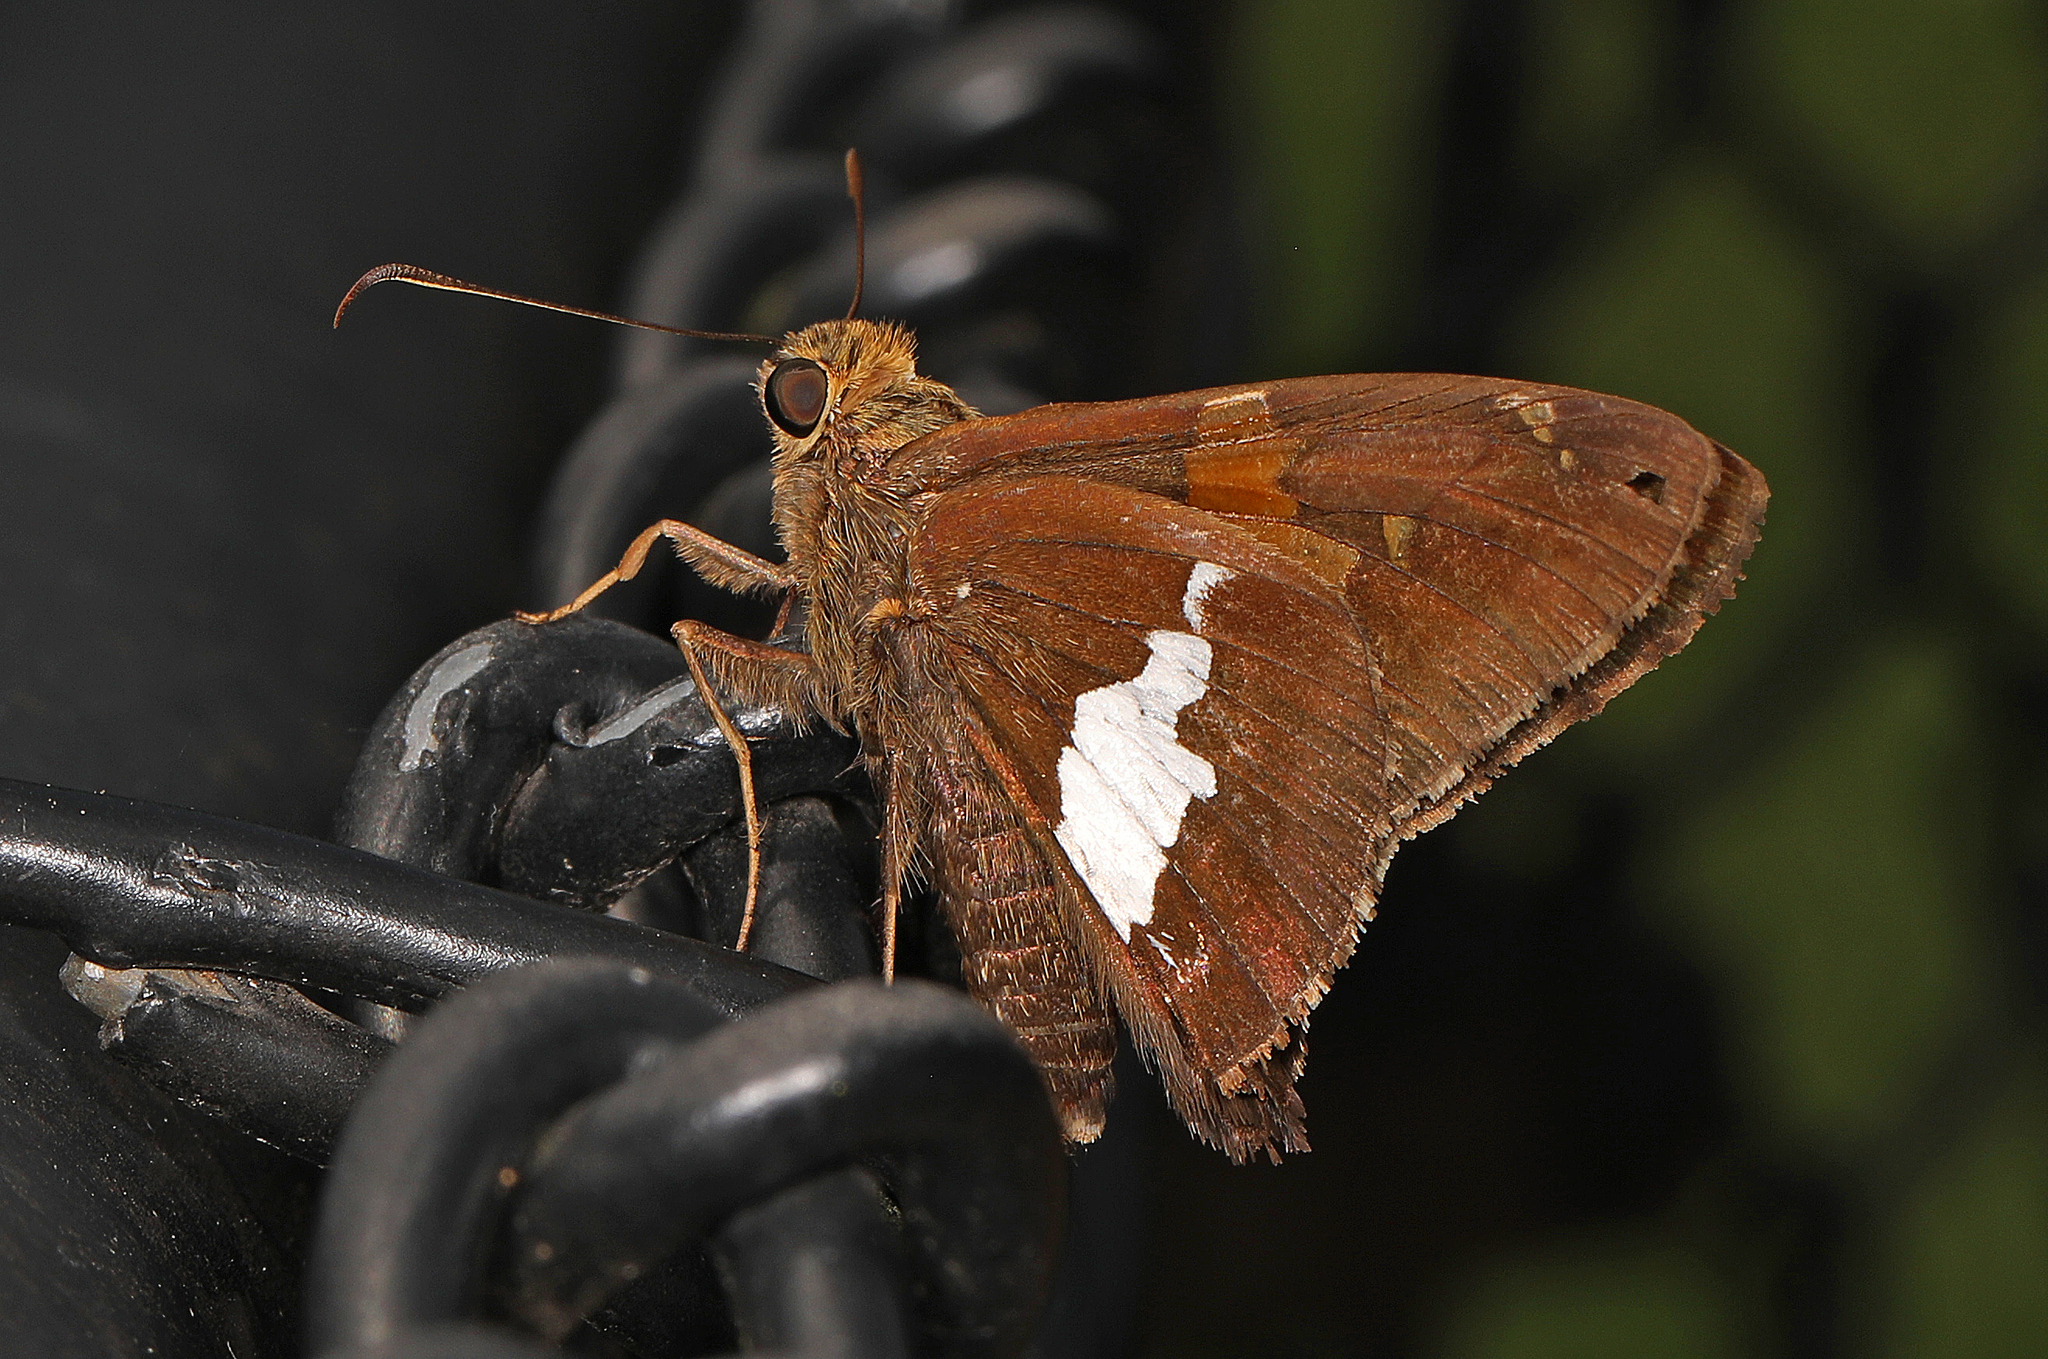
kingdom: Animalia
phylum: Arthropoda
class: Insecta
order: Lepidoptera
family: Hesperiidae
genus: Epargyreus
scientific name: Epargyreus clarus
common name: Silver-spotted skipper
